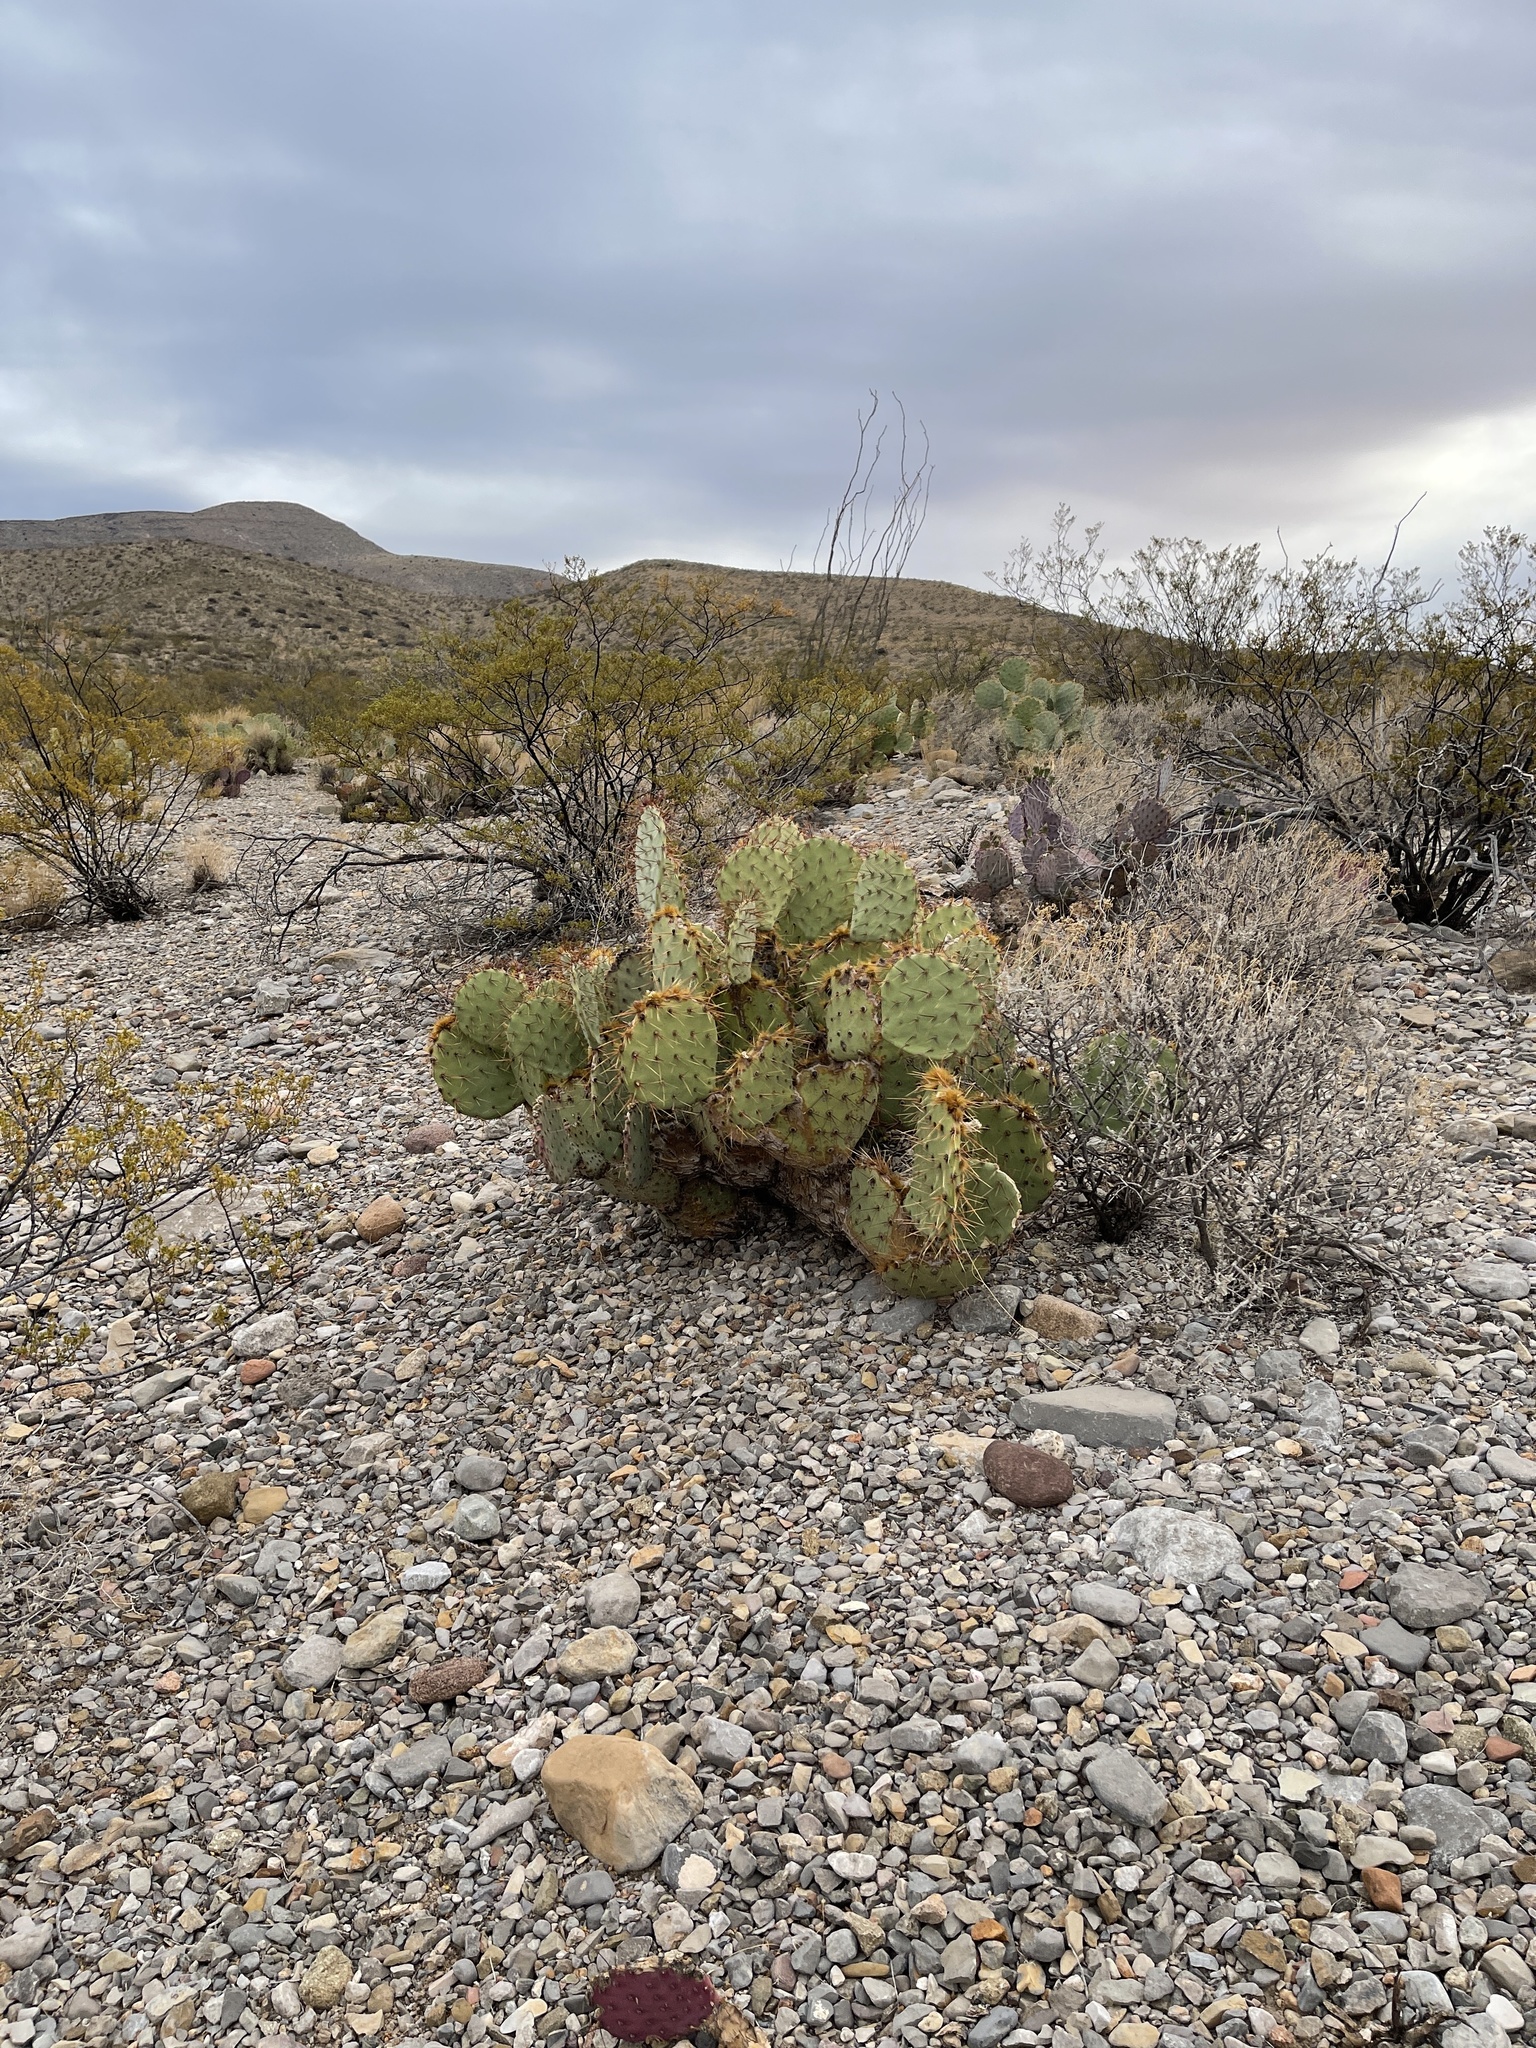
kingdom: Plantae
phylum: Tracheophyta
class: Magnoliopsida
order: Caryophyllales
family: Cactaceae
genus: Opuntia
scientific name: Opuntia engelmannii
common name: Cactus-apple
